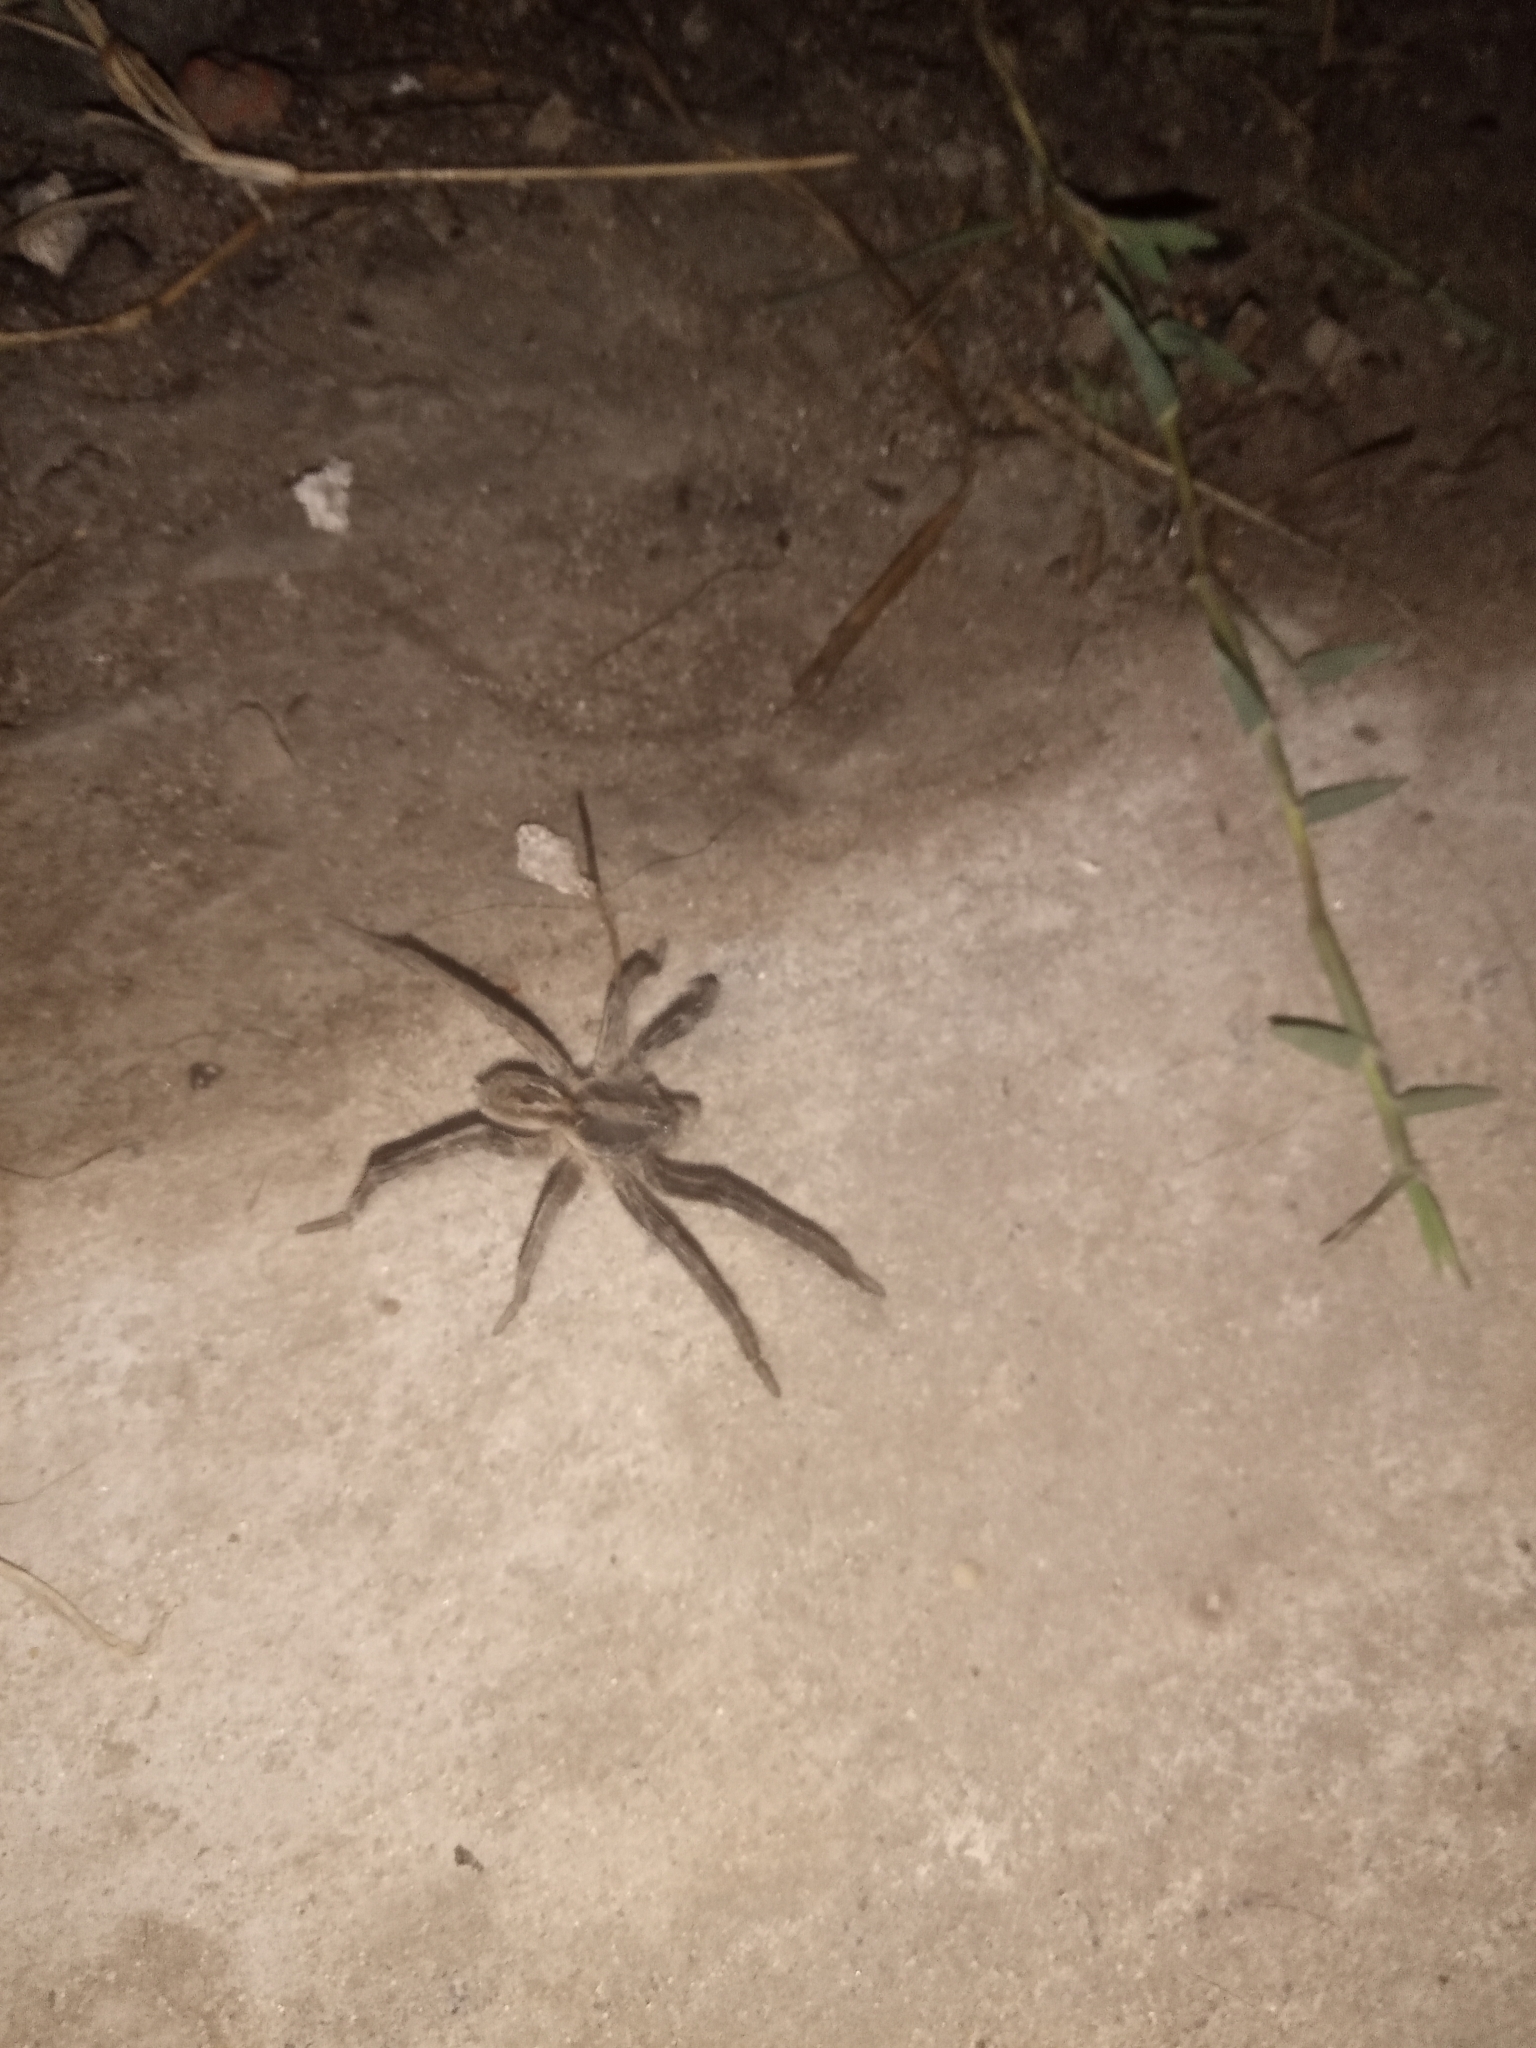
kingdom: Animalia
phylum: Arthropoda
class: Arachnida
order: Araneae
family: Lycosidae
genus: Lycosa
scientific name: Lycosa erythrognatha
